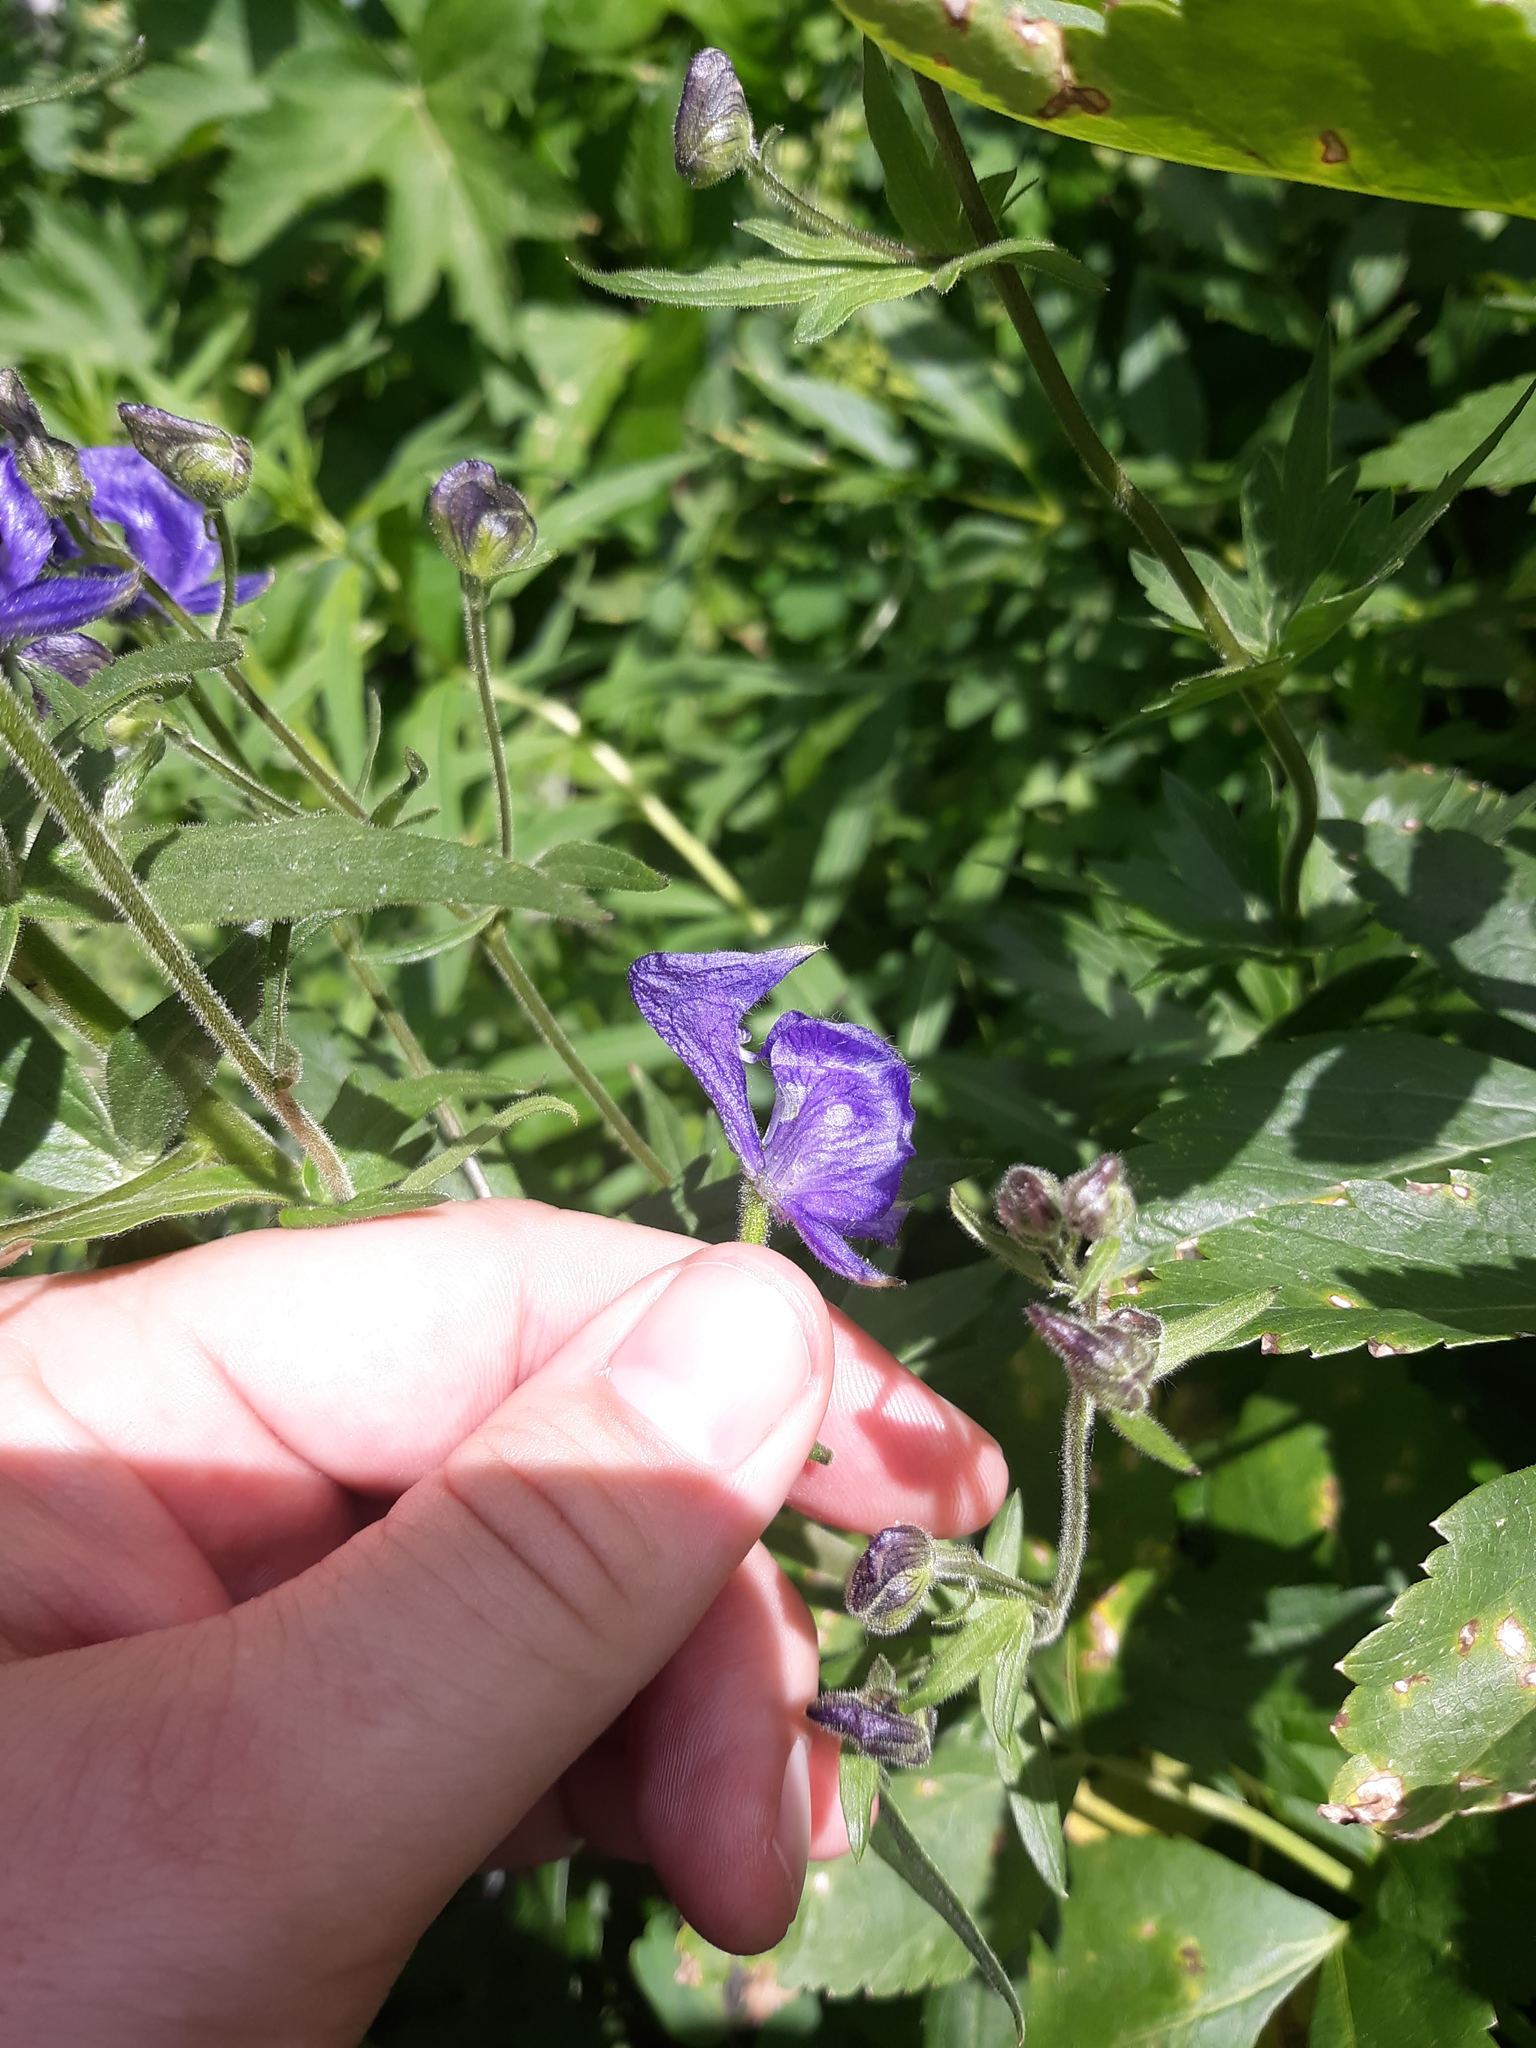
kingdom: Plantae
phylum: Tracheophyta
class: Magnoliopsida
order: Ranunculales
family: Ranunculaceae
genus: Aconitum
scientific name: Aconitum columbianum
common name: Columbia aconite
